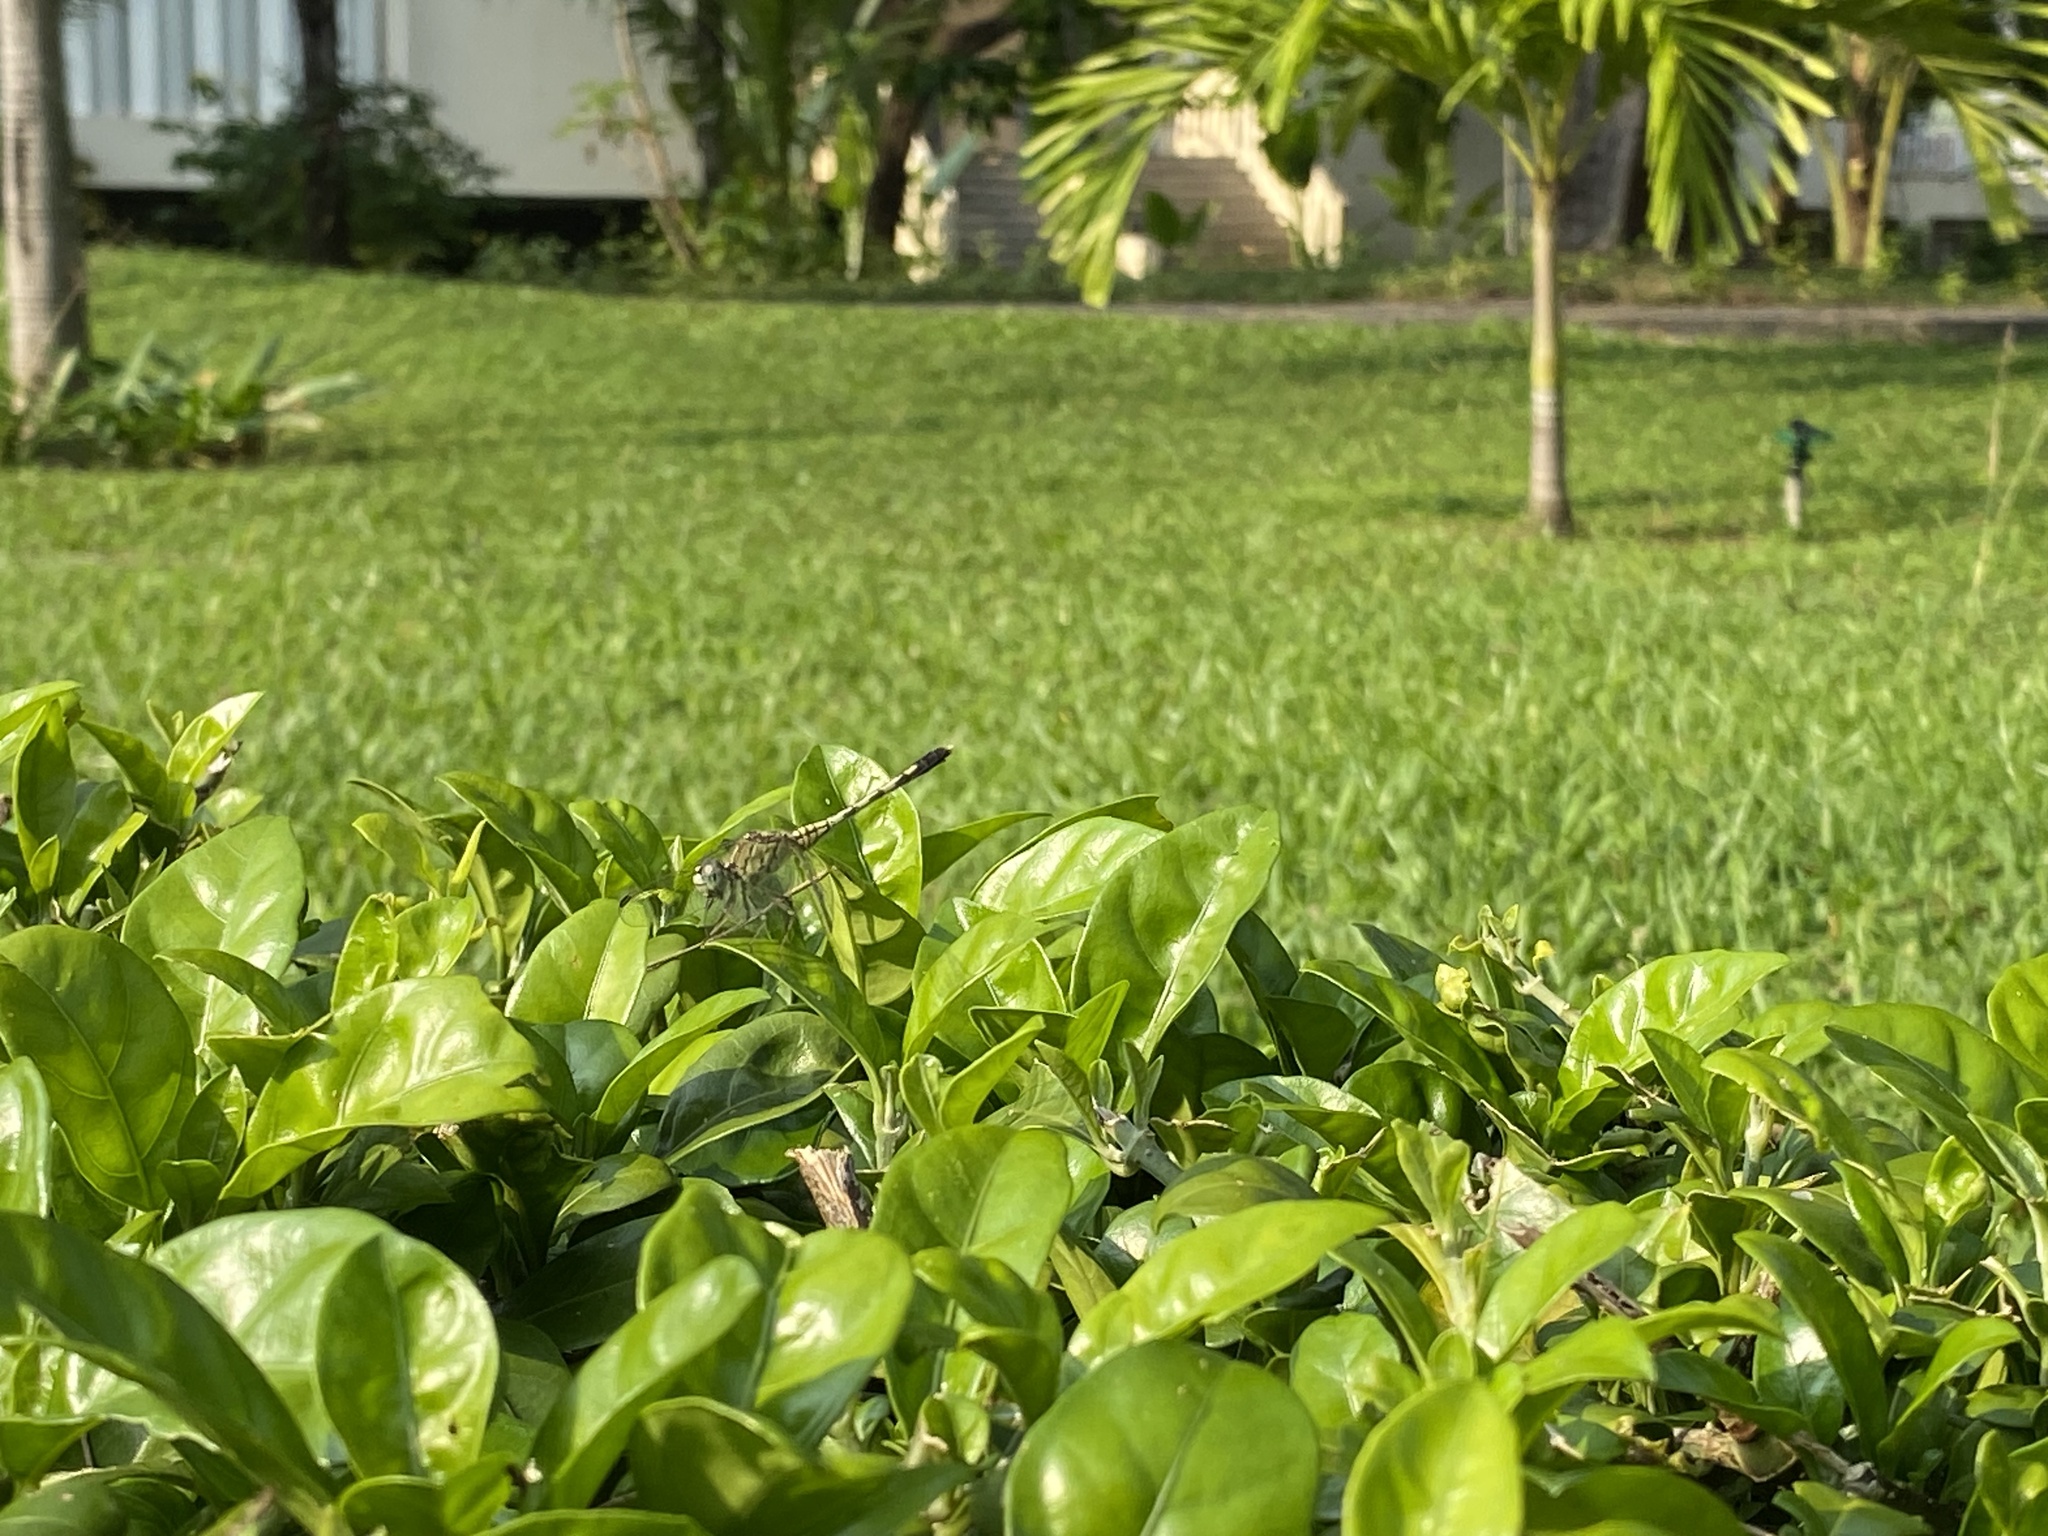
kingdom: Animalia
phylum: Arthropoda
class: Insecta
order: Odonata
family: Libellulidae
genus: Diplacodes
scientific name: Diplacodes trivialis
